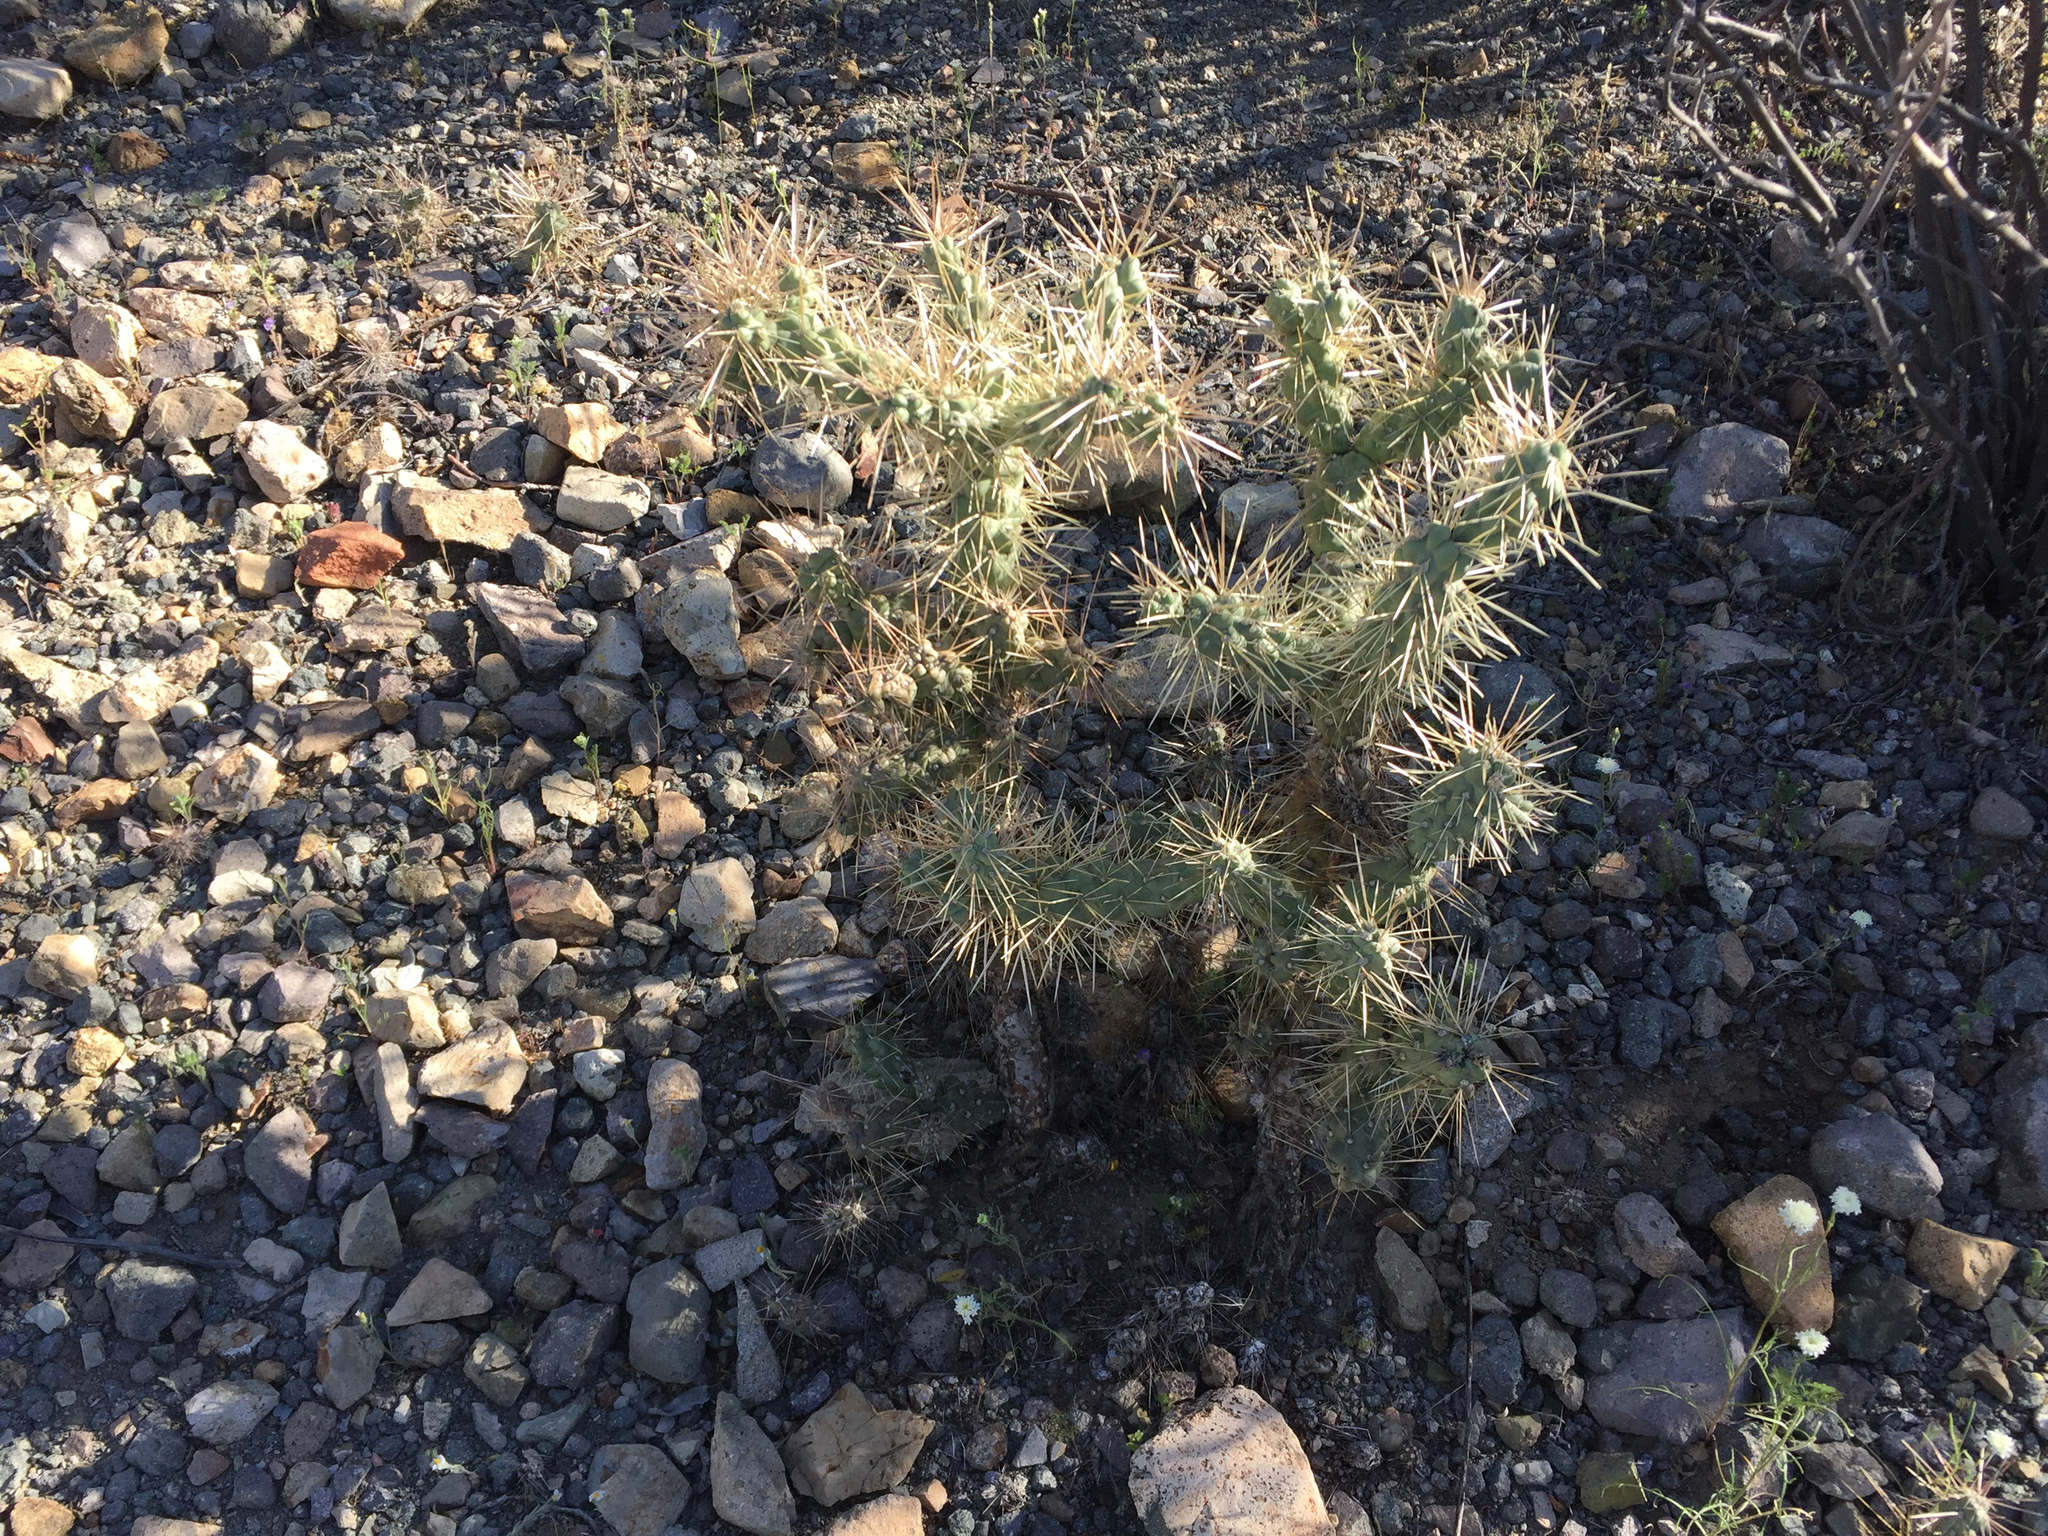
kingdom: Plantae
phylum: Tracheophyta
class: Magnoliopsida
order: Caryophyllales
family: Cactaceae
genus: Cylindropuntia
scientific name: Cylindropuntia fulgida
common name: Jumping cholla
